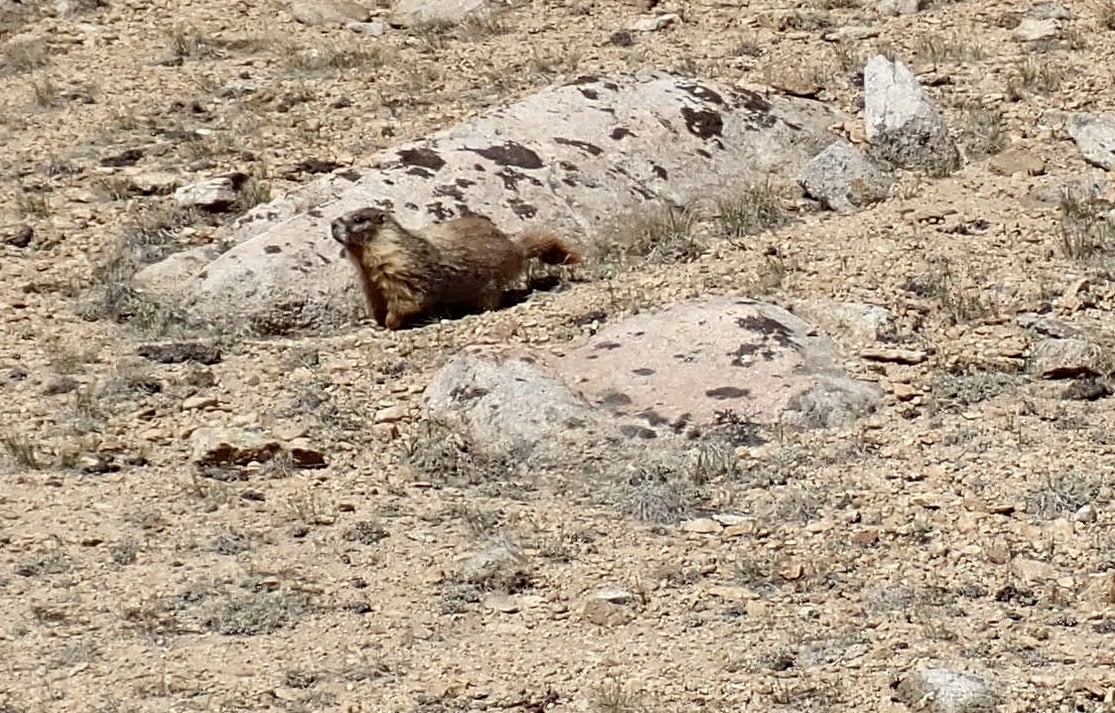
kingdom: Animalia
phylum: Chordata
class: Mammalia
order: Rodentia
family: Sciuridae
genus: Marmota
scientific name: Marmota flaviventris
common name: Yellow-bellied marmot
